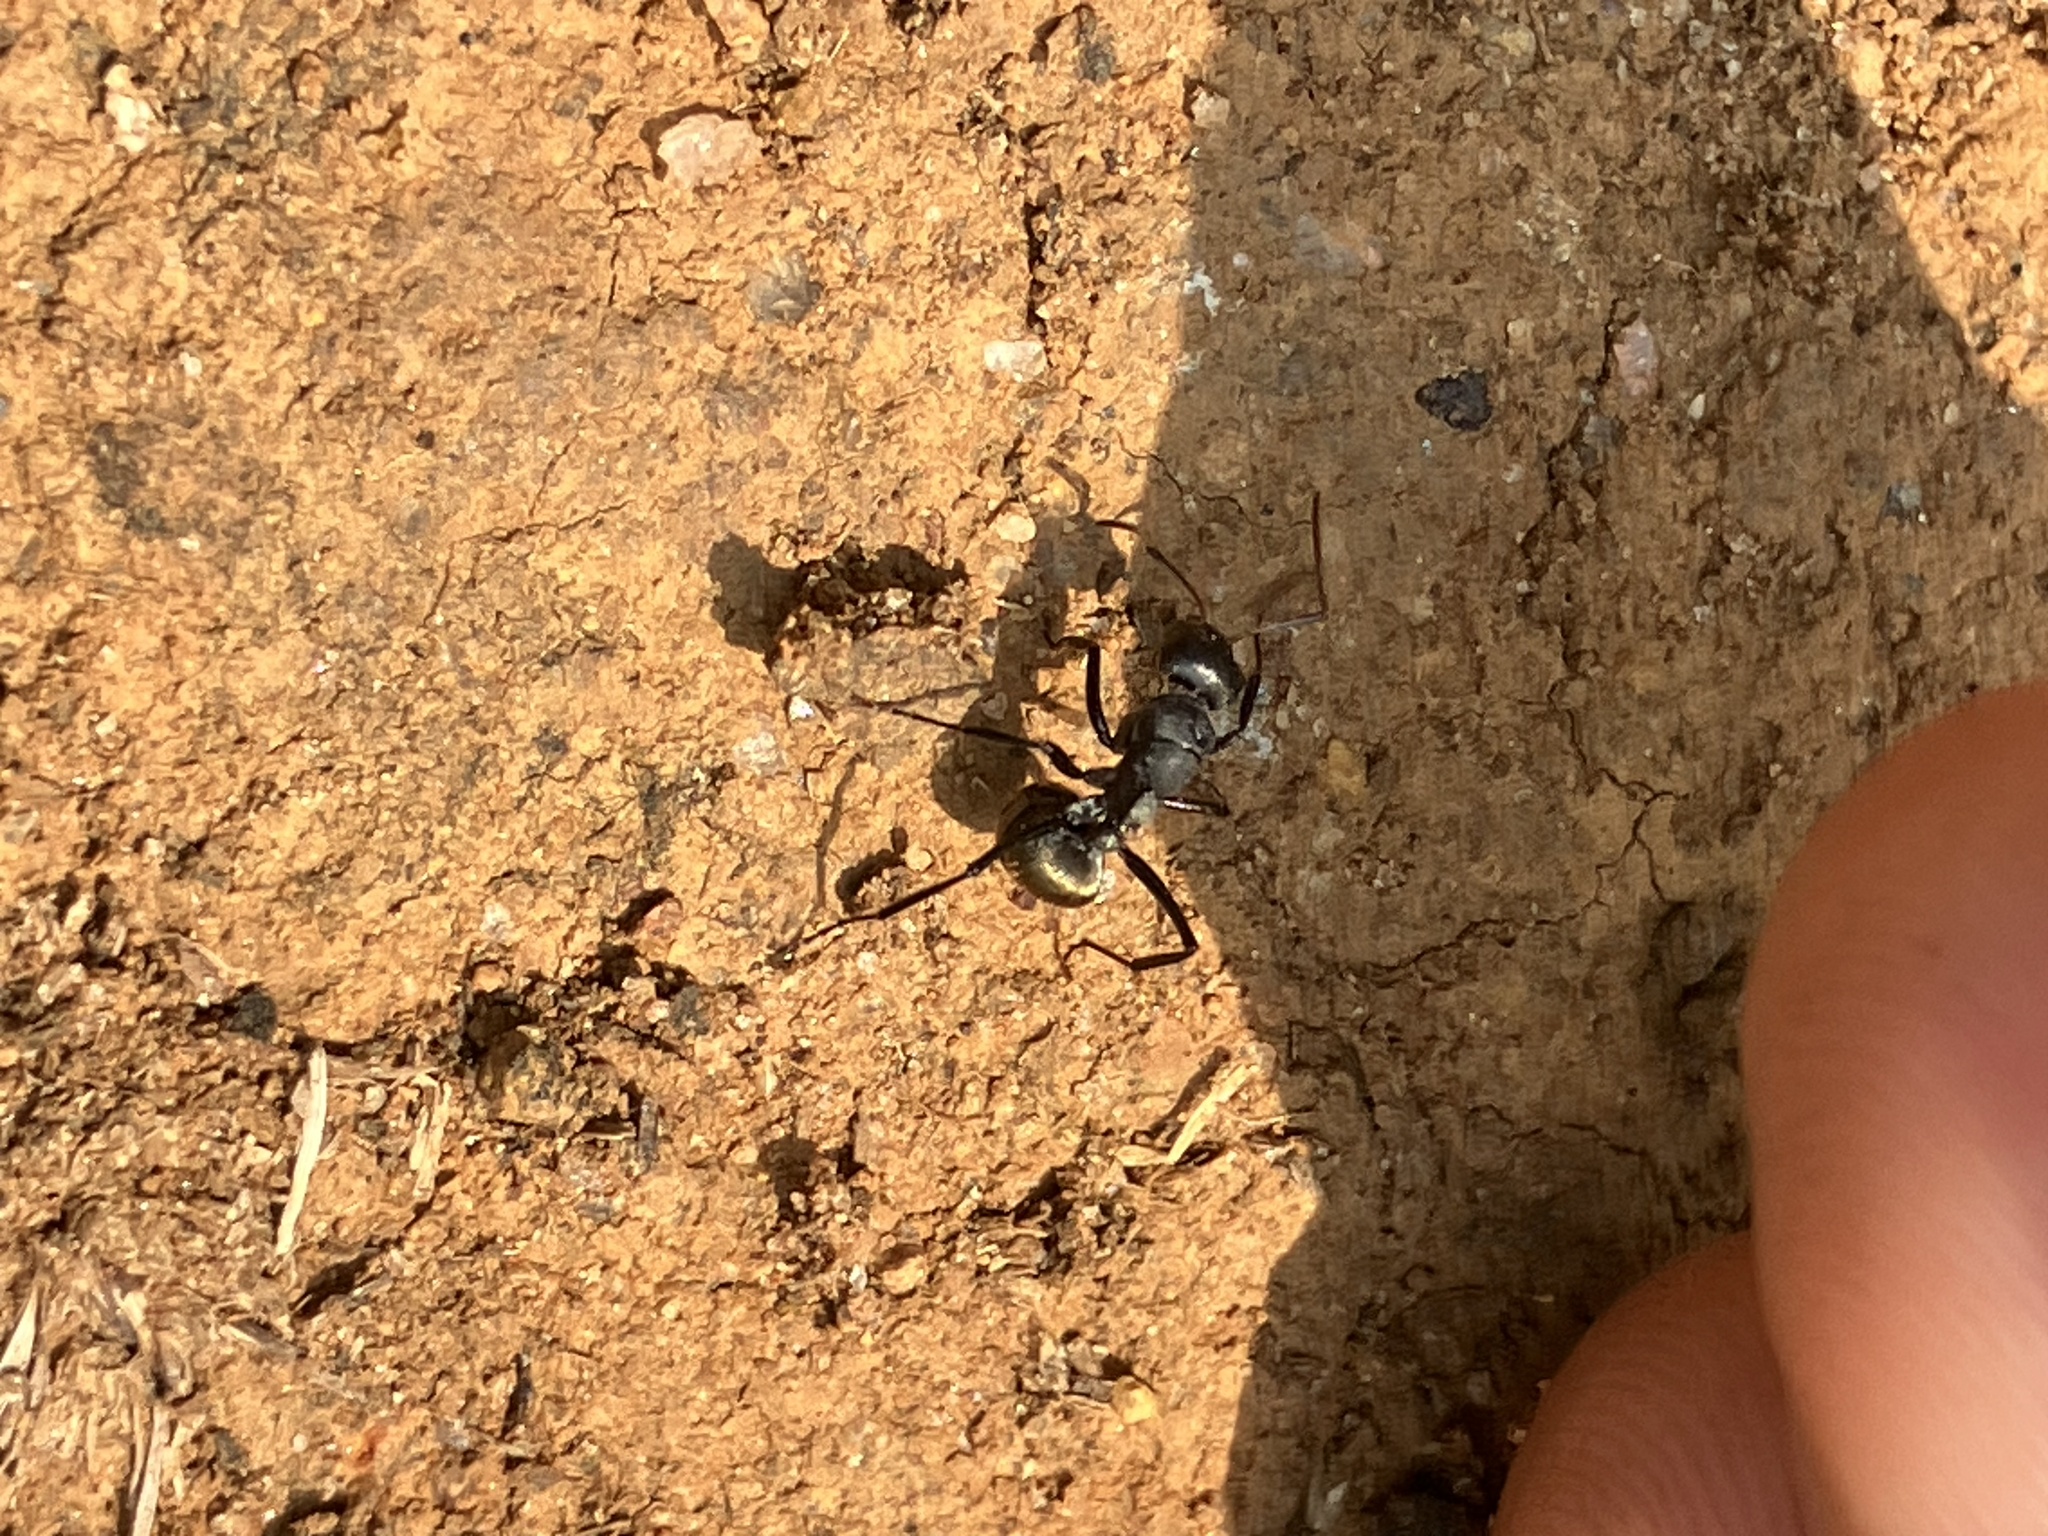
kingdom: Animalia
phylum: Arthropoda
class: Insecta
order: Hymenoptera
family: Formicidae
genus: Camponotus
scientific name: Camponotus sericeus
